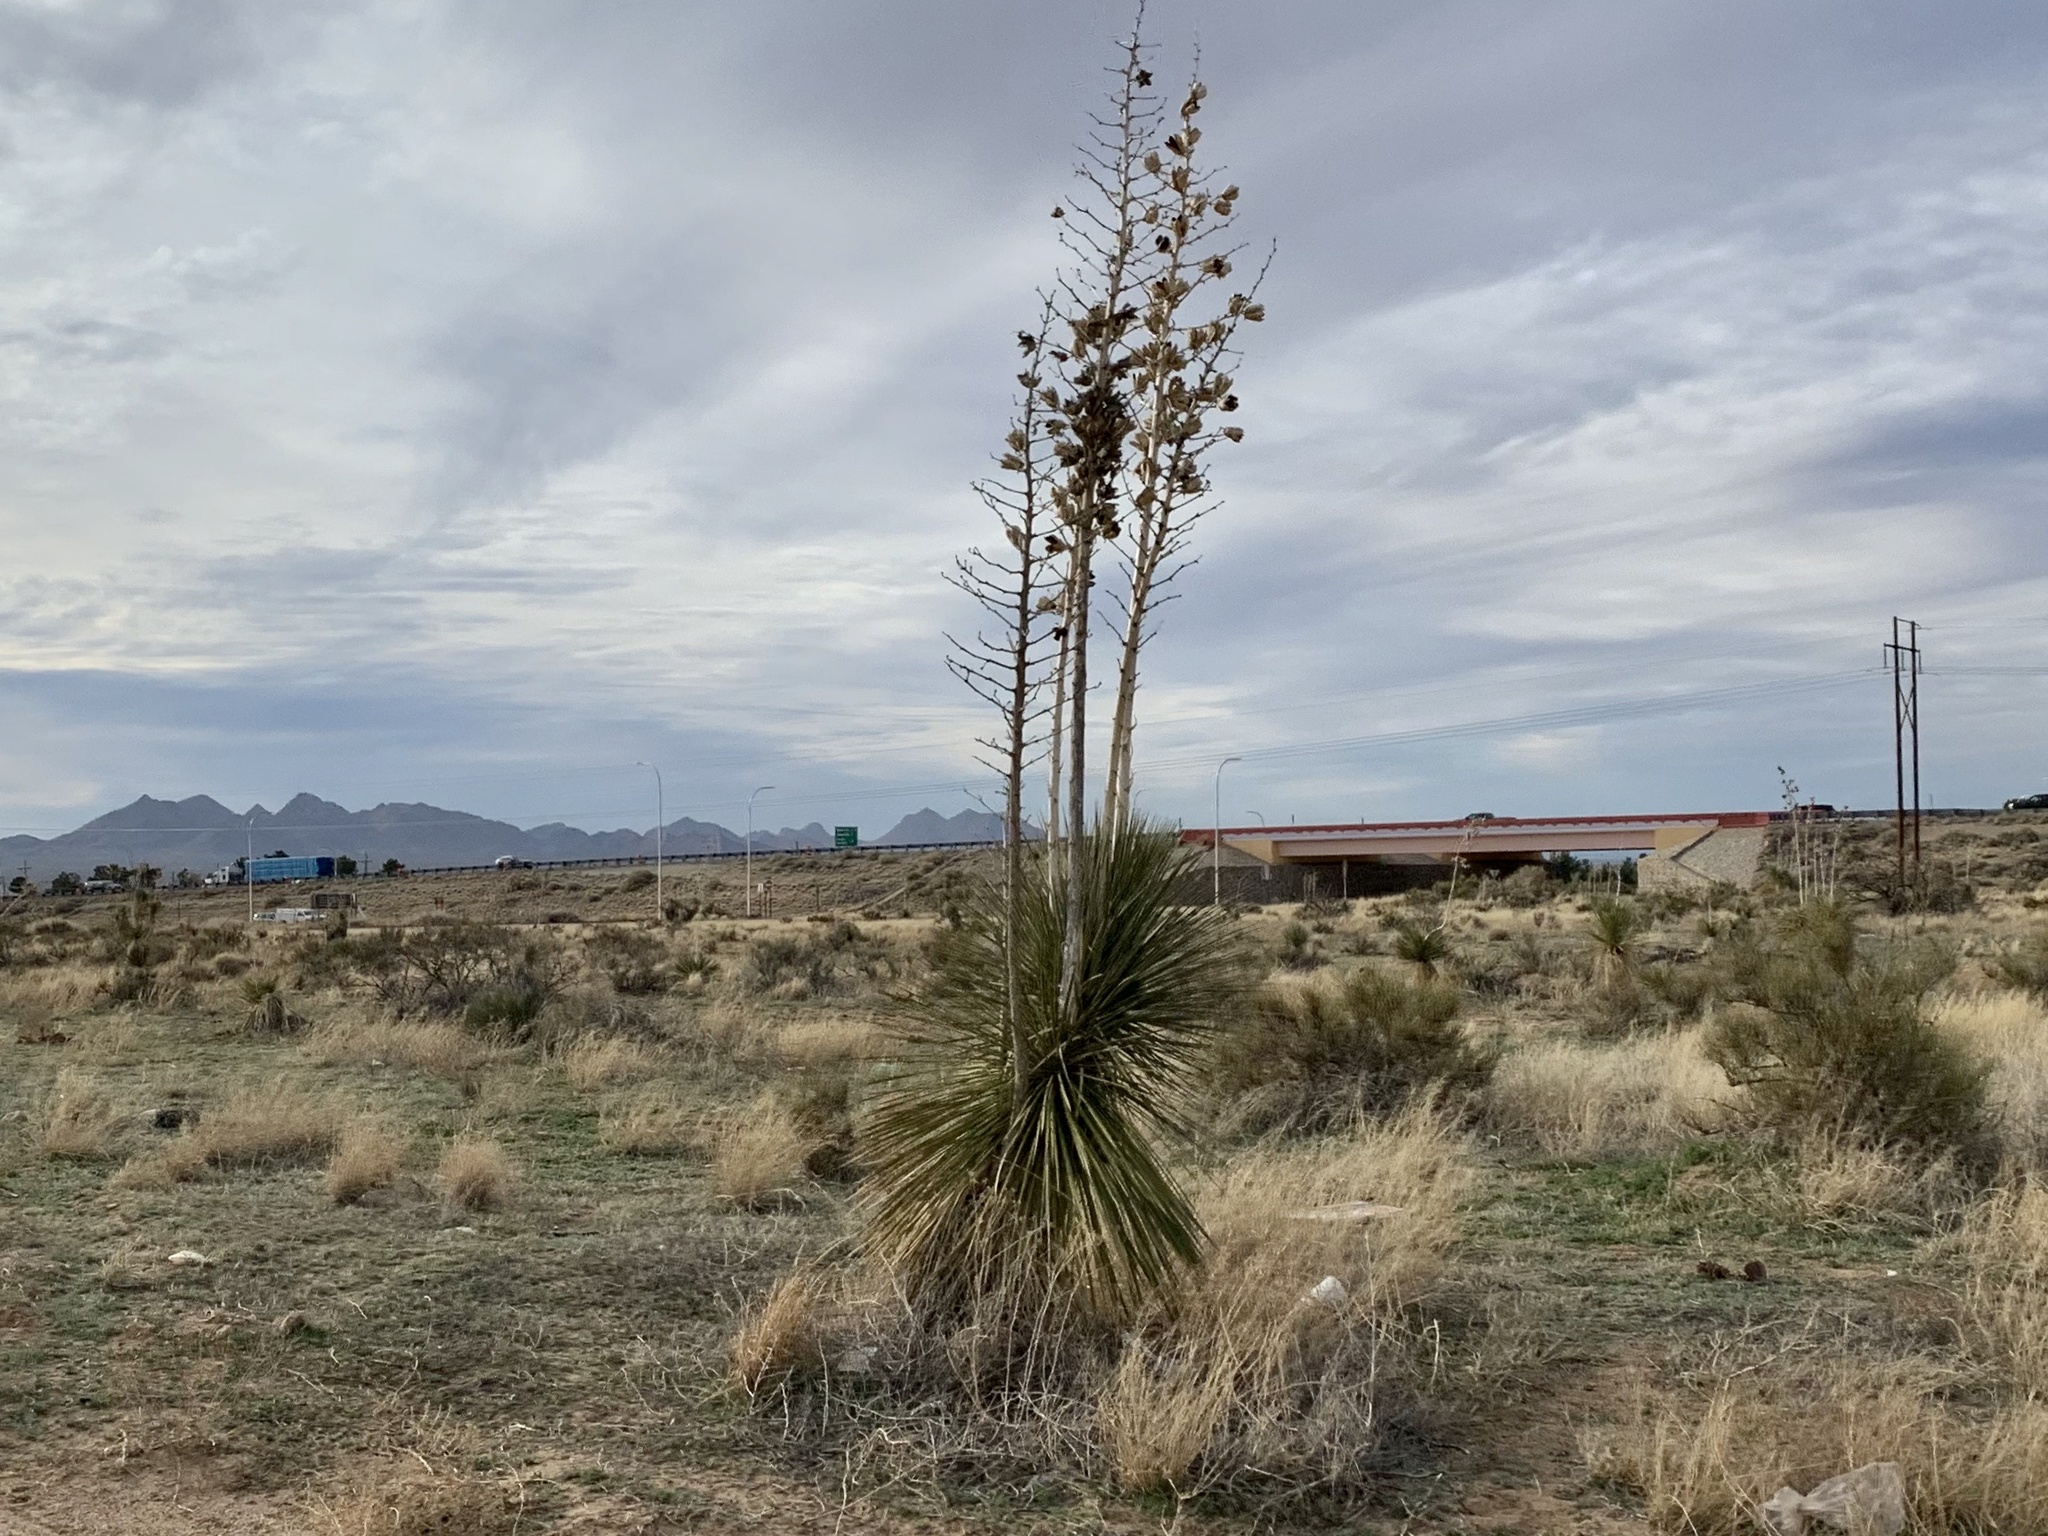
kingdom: Plantae
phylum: Tracheophyta
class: Liliopsida
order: Asparagales
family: Asparagaceae
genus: Yucca
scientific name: Yucca elata
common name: Palmella
